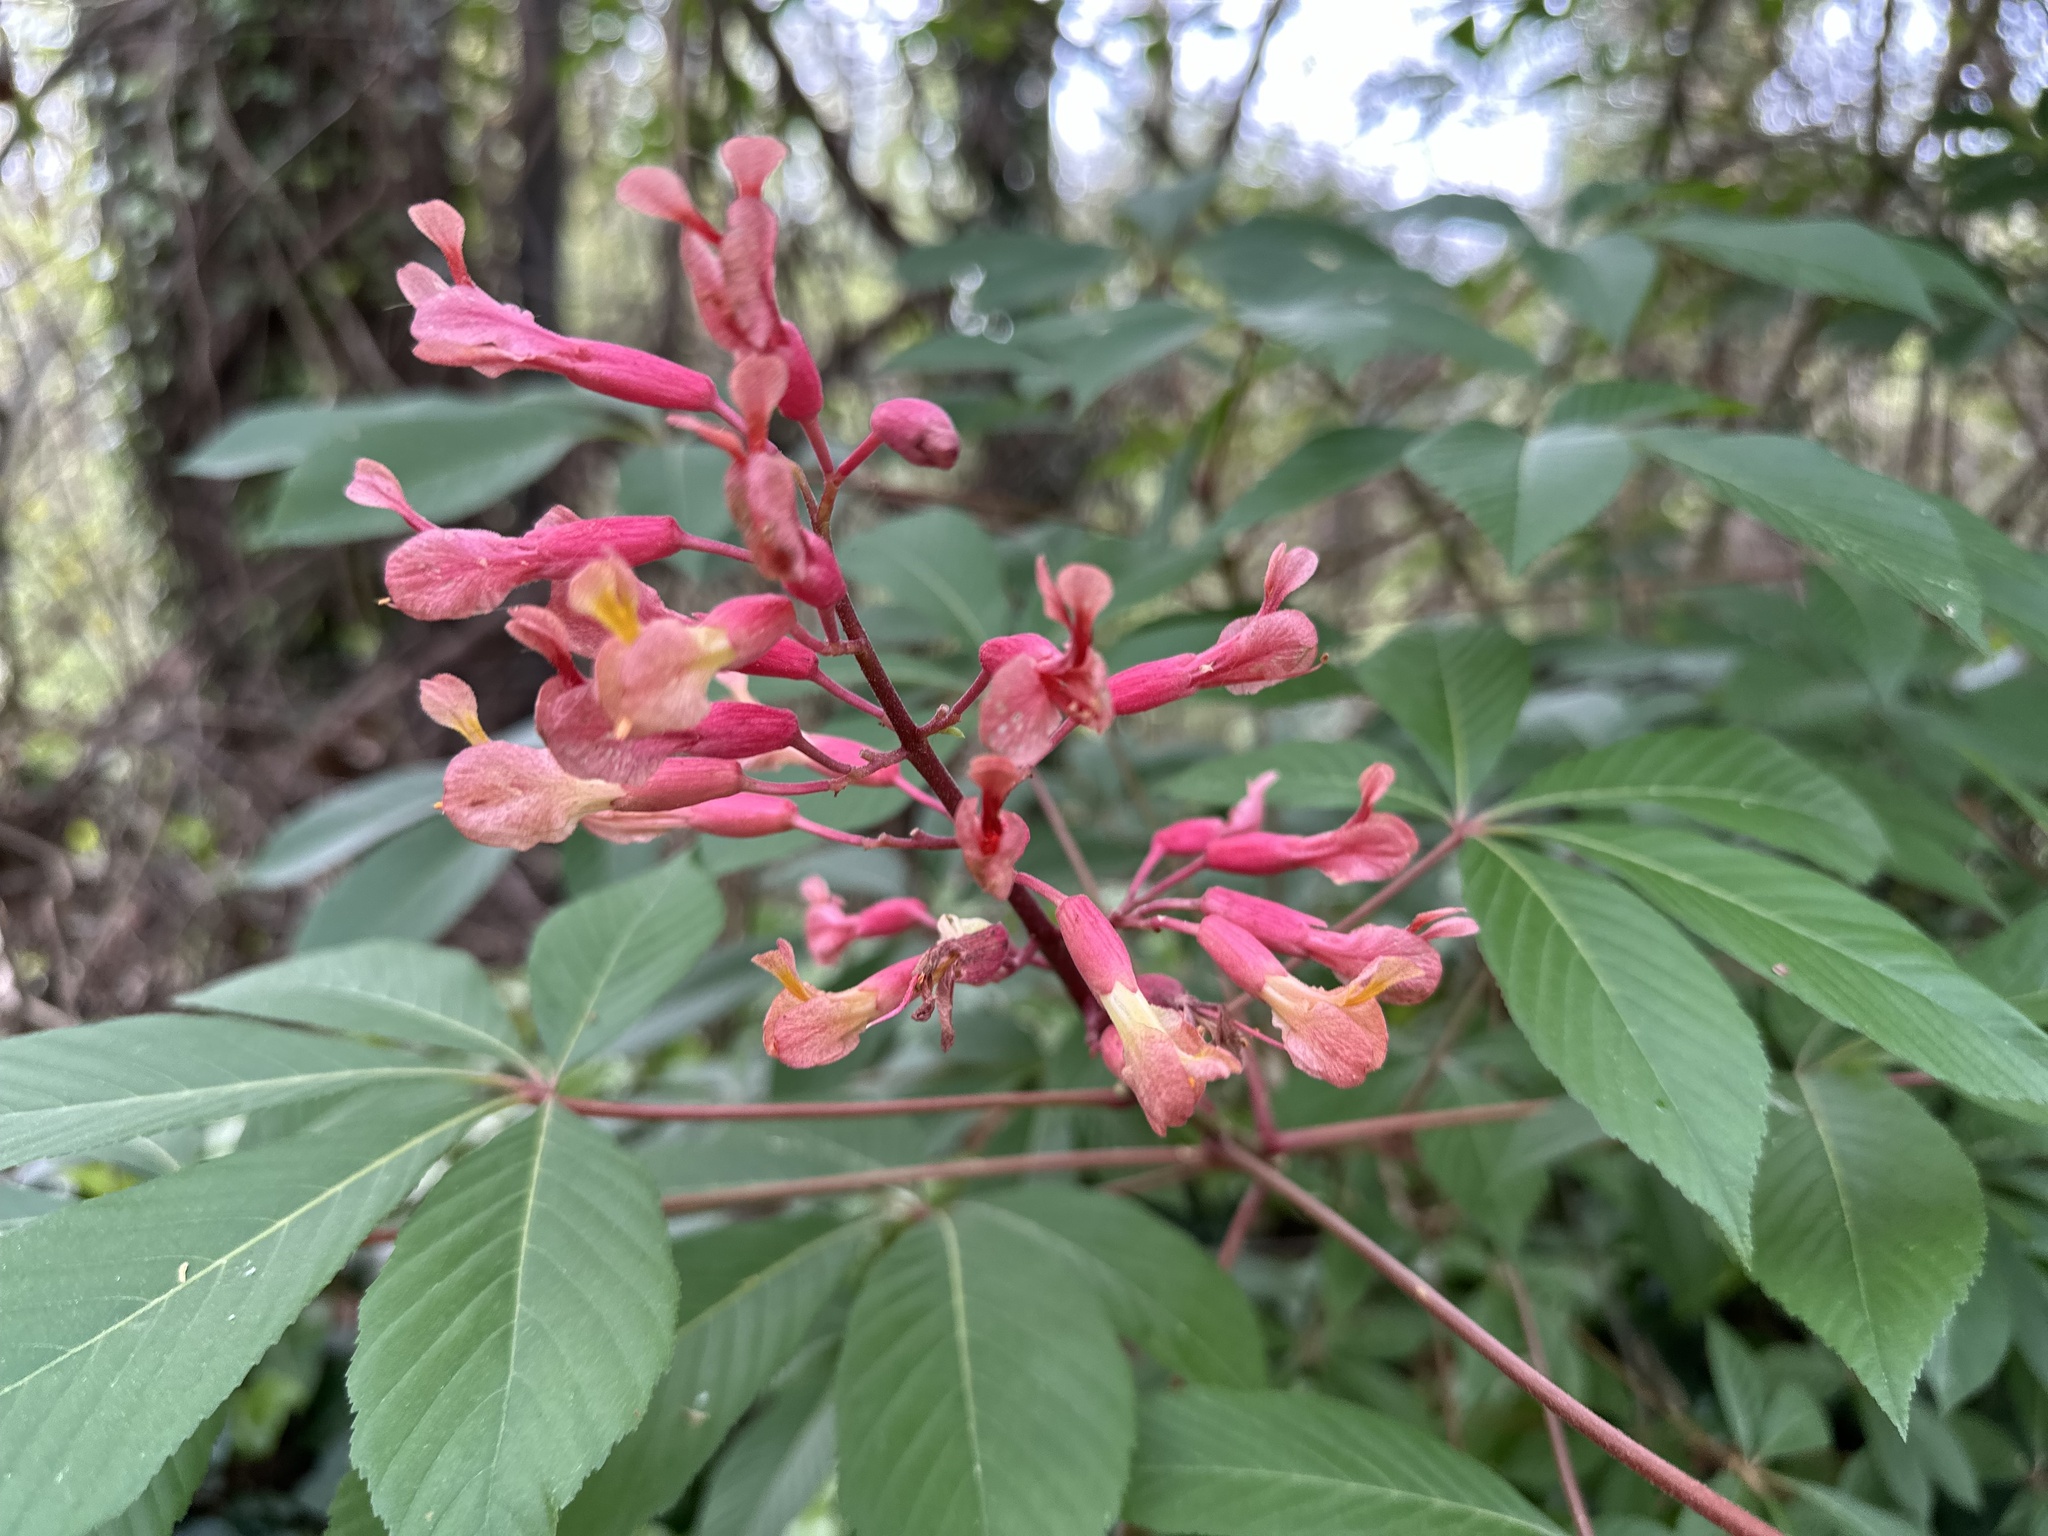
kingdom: Plantae
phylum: Tracheophyta
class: Magnoliopsida
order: Sapindales
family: Sapindaceae
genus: Aesculus
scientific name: Aesculus pavia
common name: Red buckeye
